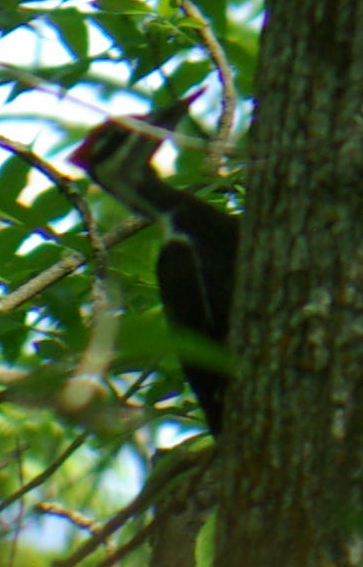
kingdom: Animalia
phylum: Chordata
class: Aves
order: Piciformes
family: Picidae
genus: Dryocopus
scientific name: Dryocopus pileatus
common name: Pileated woodpecker
